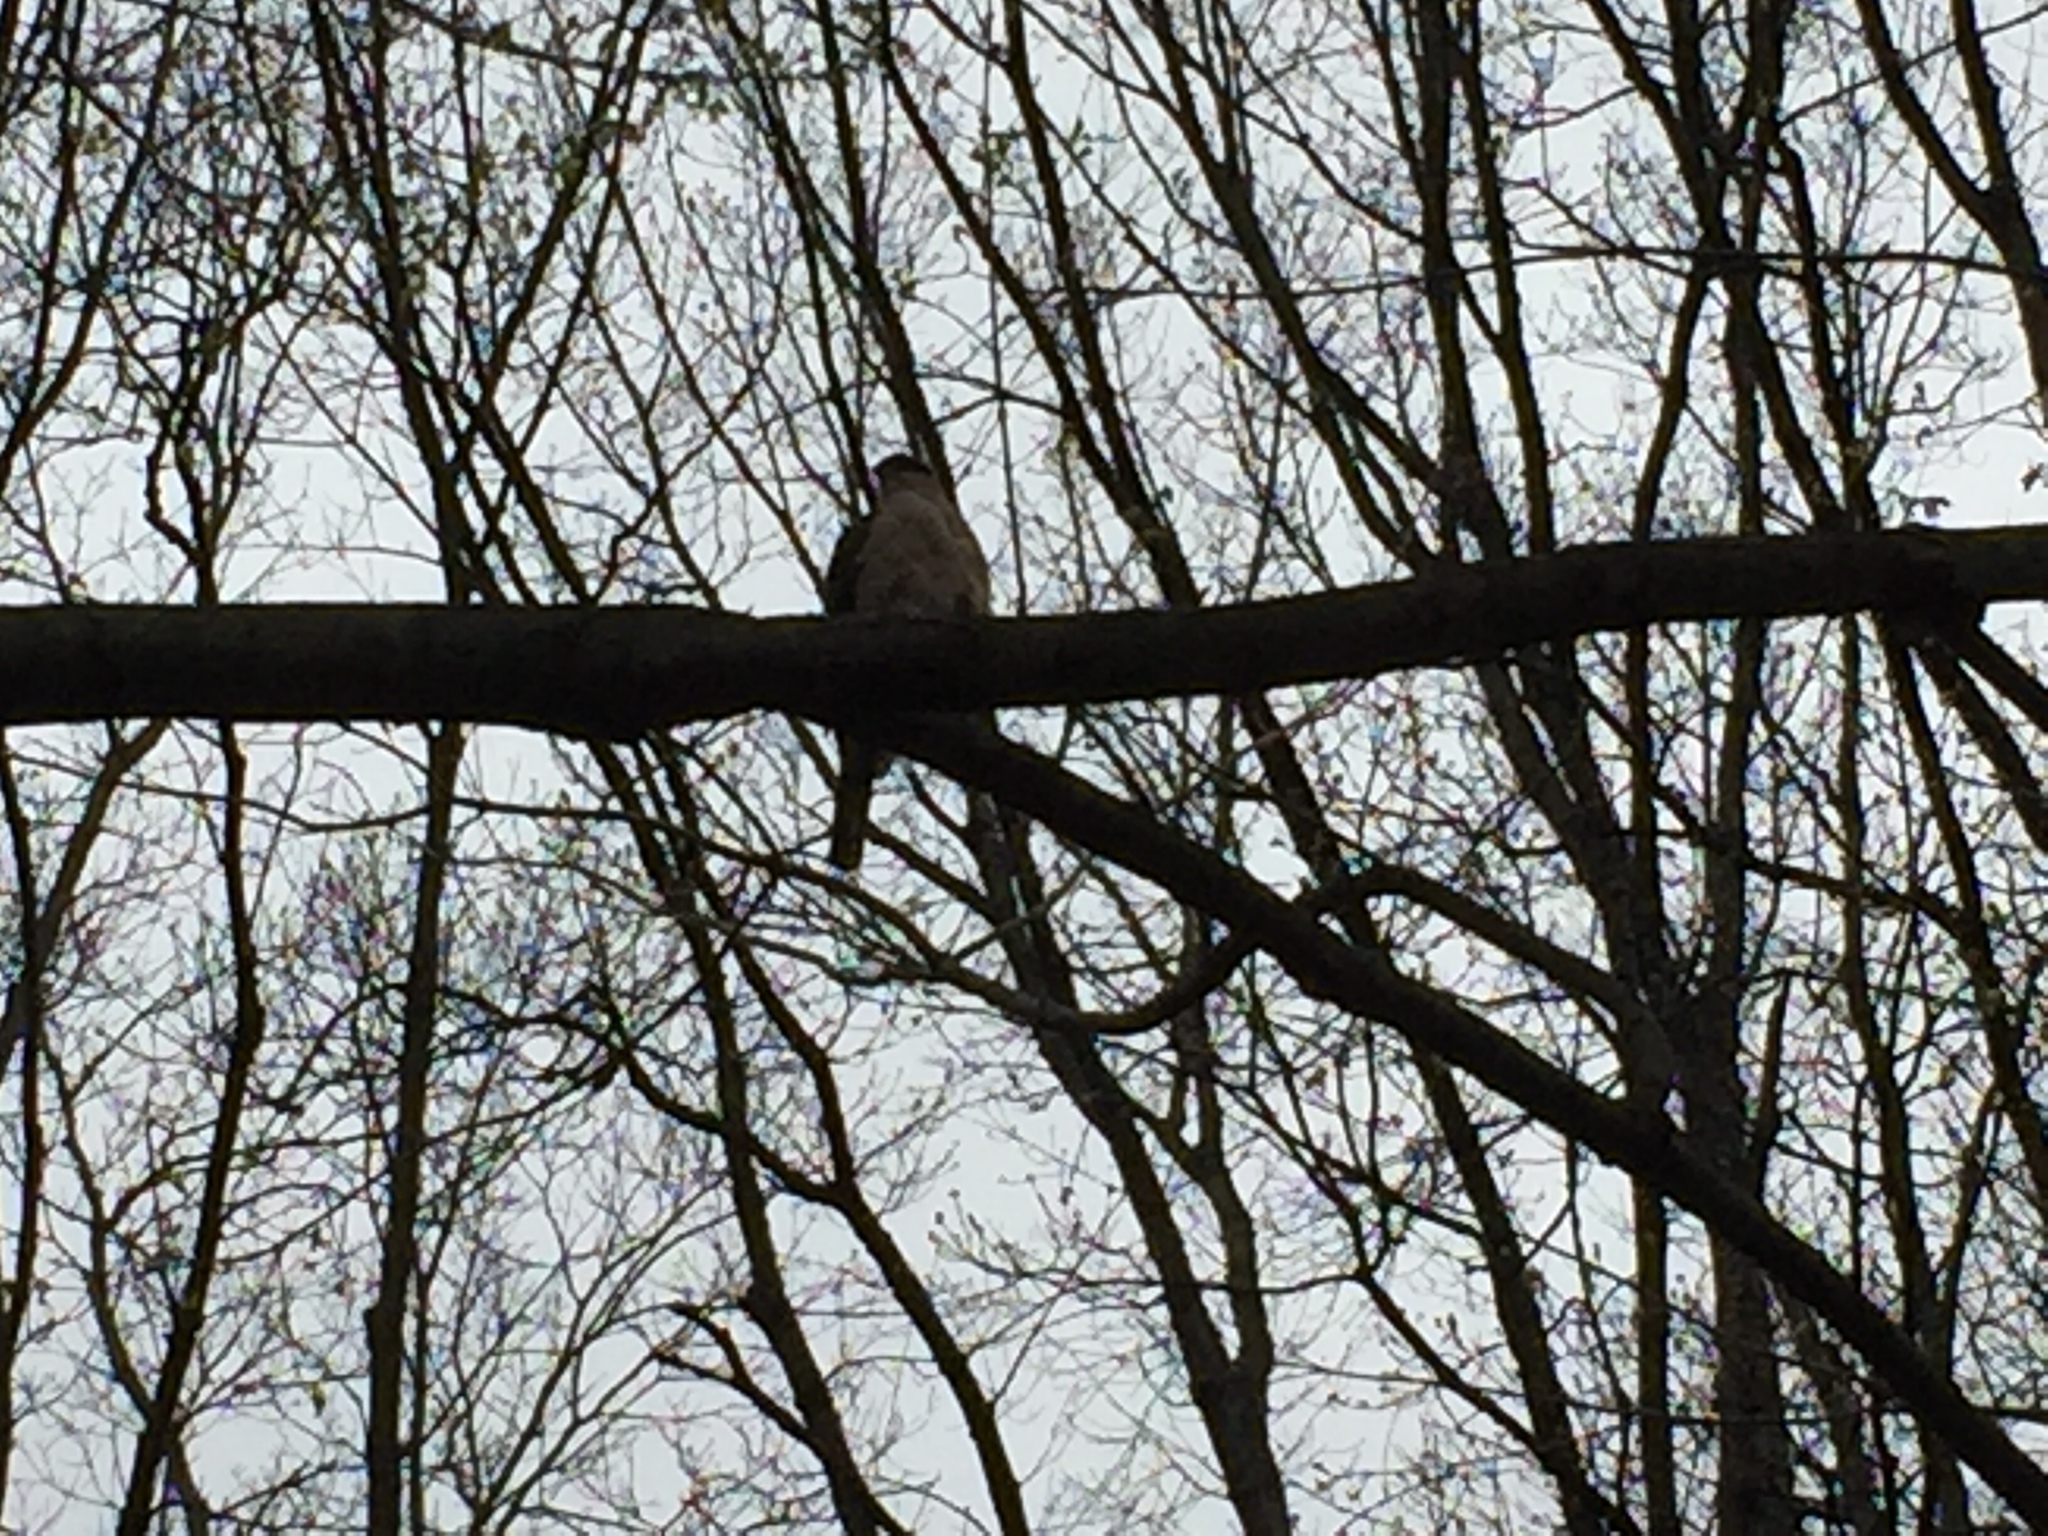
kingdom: Animalia
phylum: Chordata
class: Aves
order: Accipitriformes
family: Accipitridae
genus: Accipiter
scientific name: Accipiter striatus
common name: Sharp-shinned hawk
